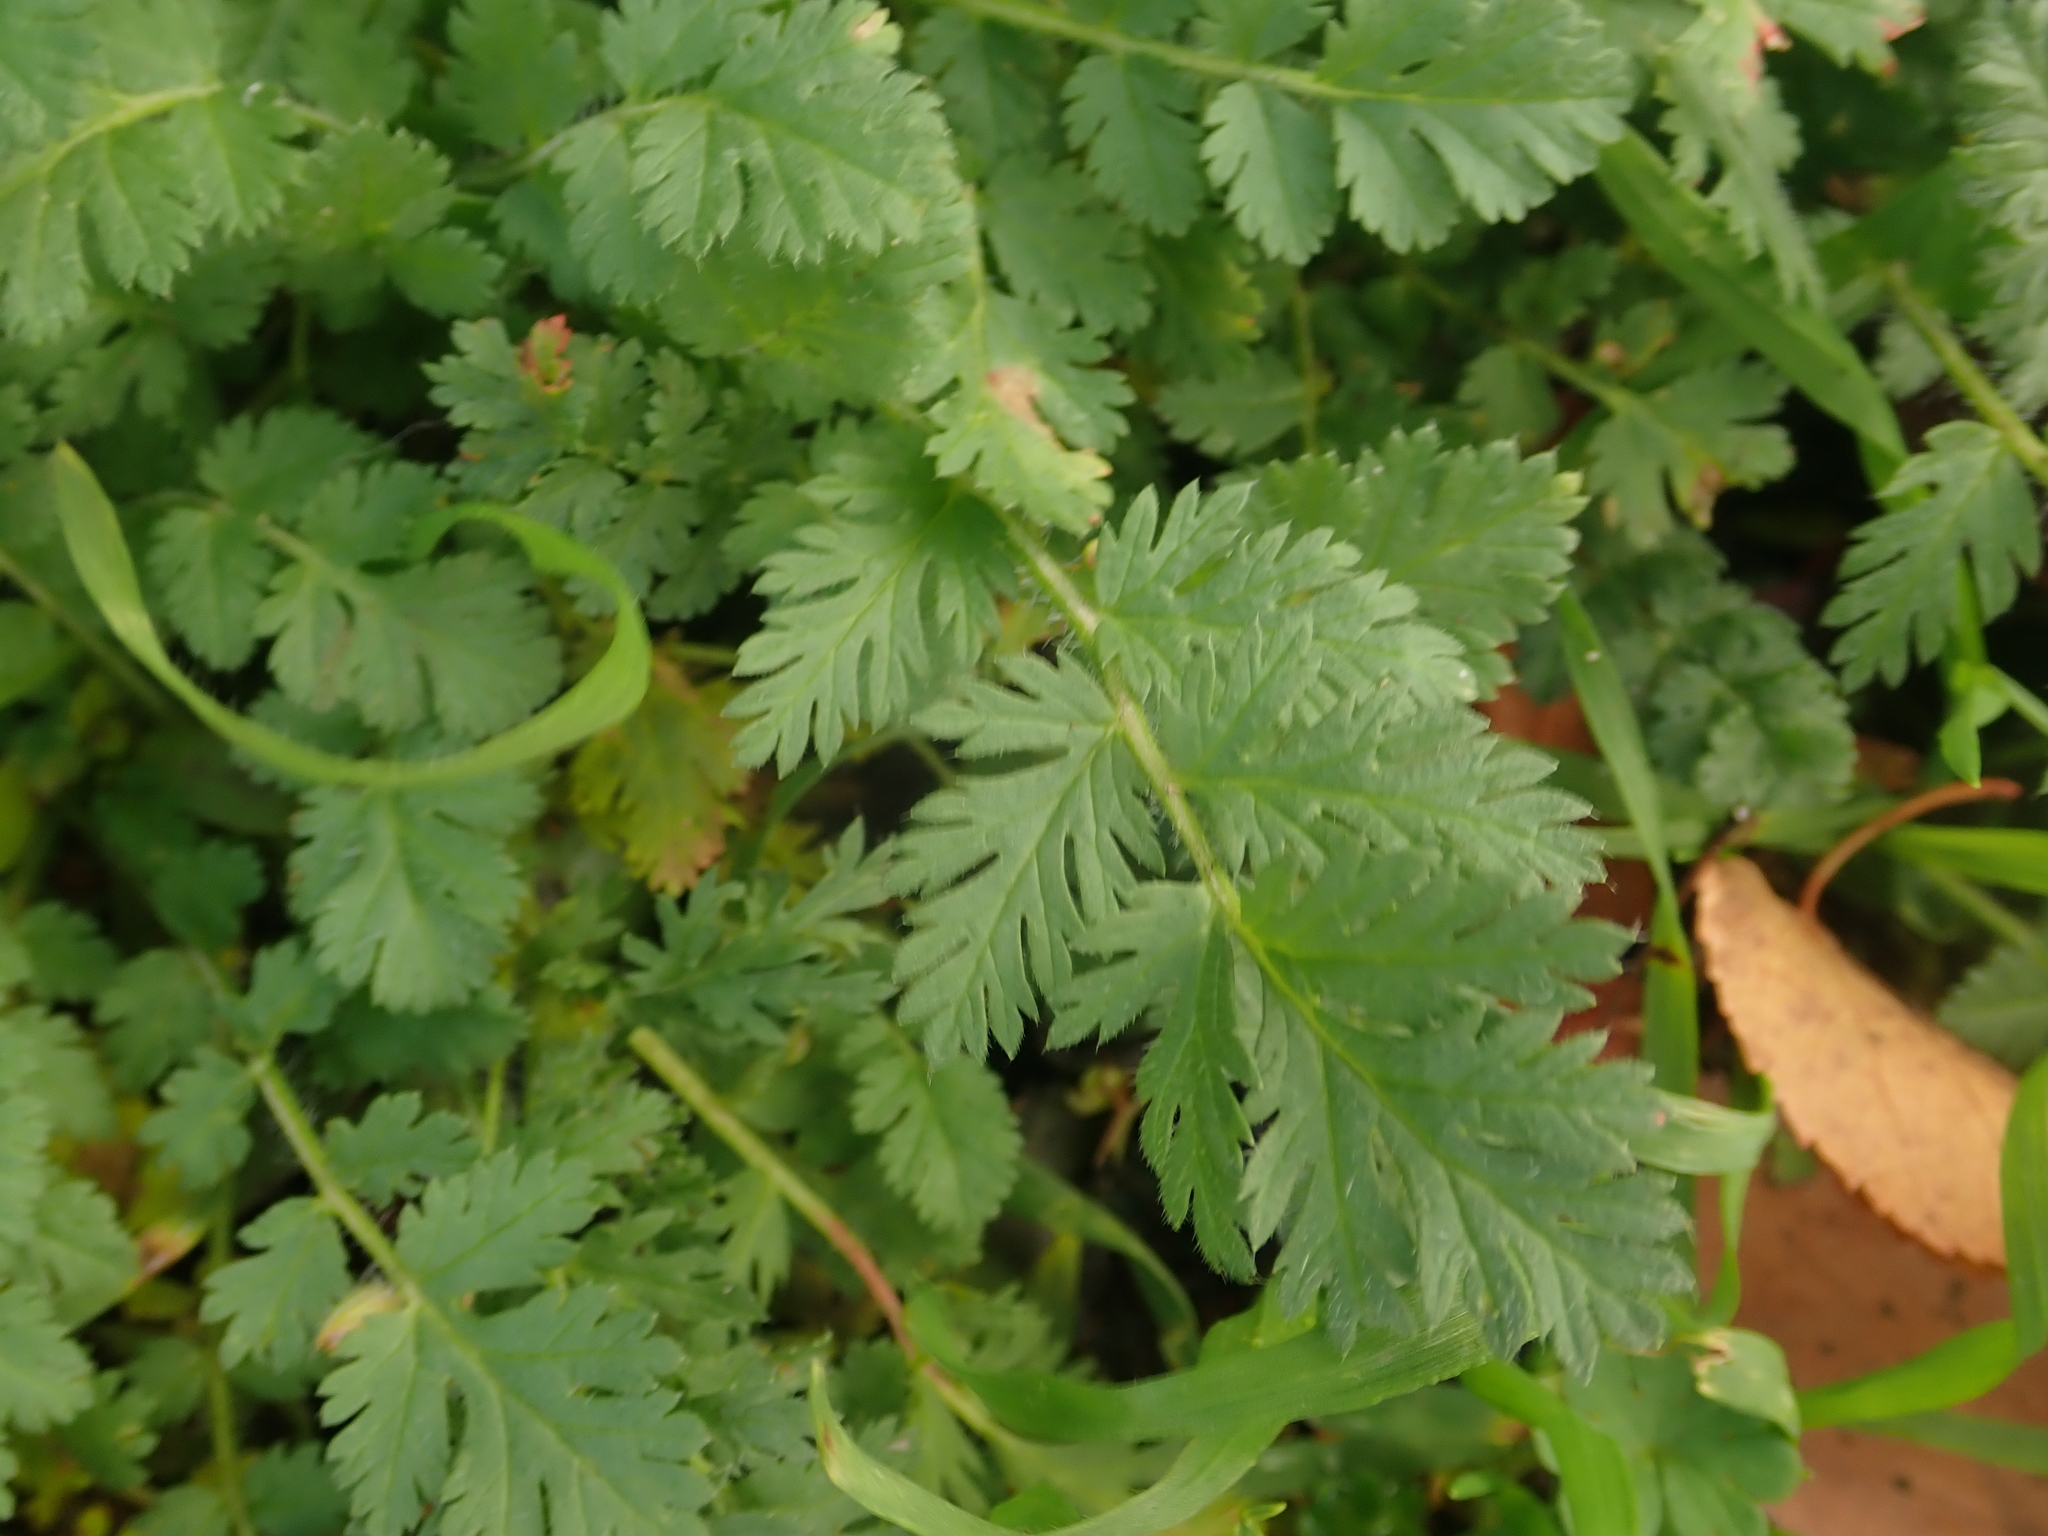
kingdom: Plantae
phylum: Tracheophyta
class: Magnoliopsida
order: Geraniales
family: Geraniaceae
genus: Erodium
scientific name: Erodium cicutarium
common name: Common stork's-bill
